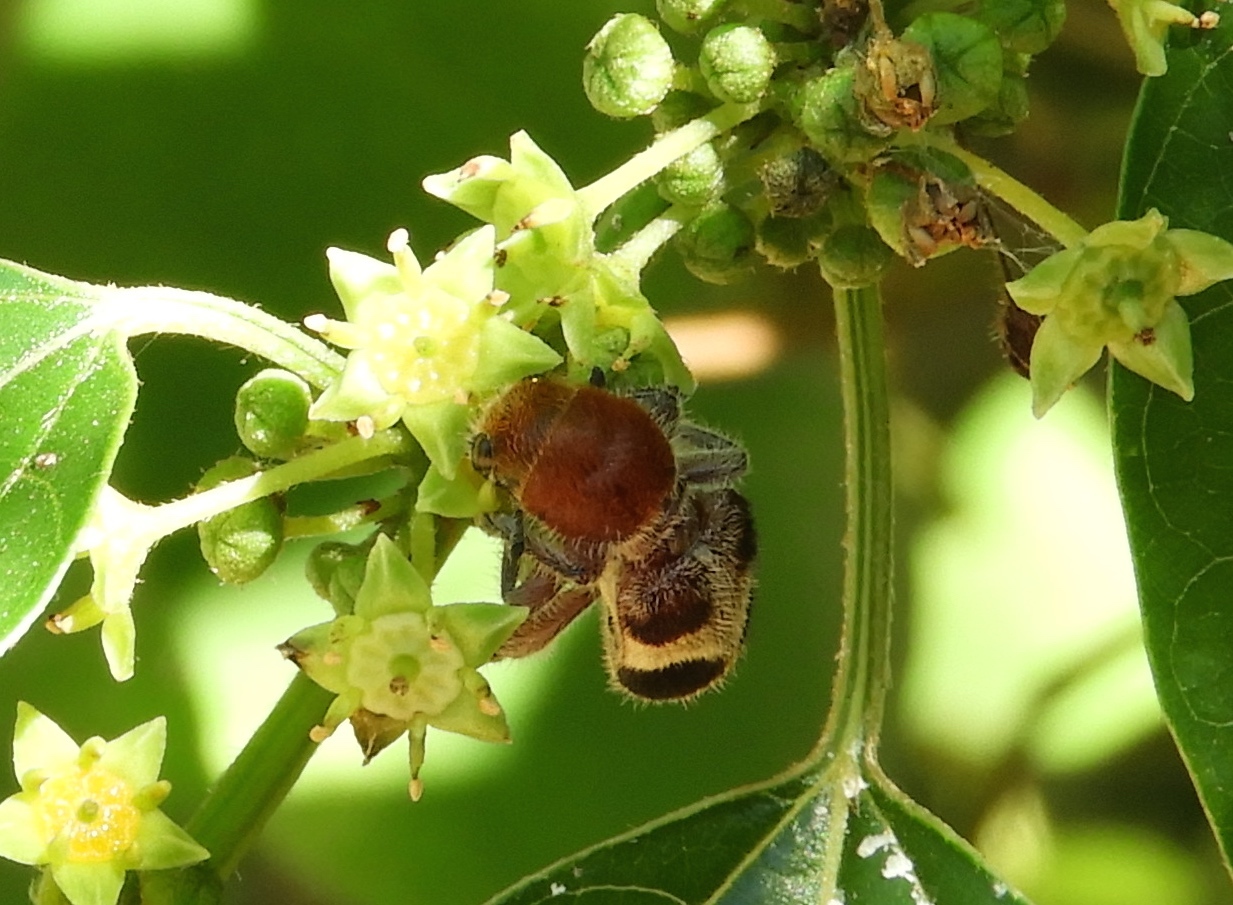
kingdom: Animalia
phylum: Arthropoda
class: Insecta
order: Coleoptera
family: Cleridae
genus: Enoclerus
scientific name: Enoclerus quadriguttatus
